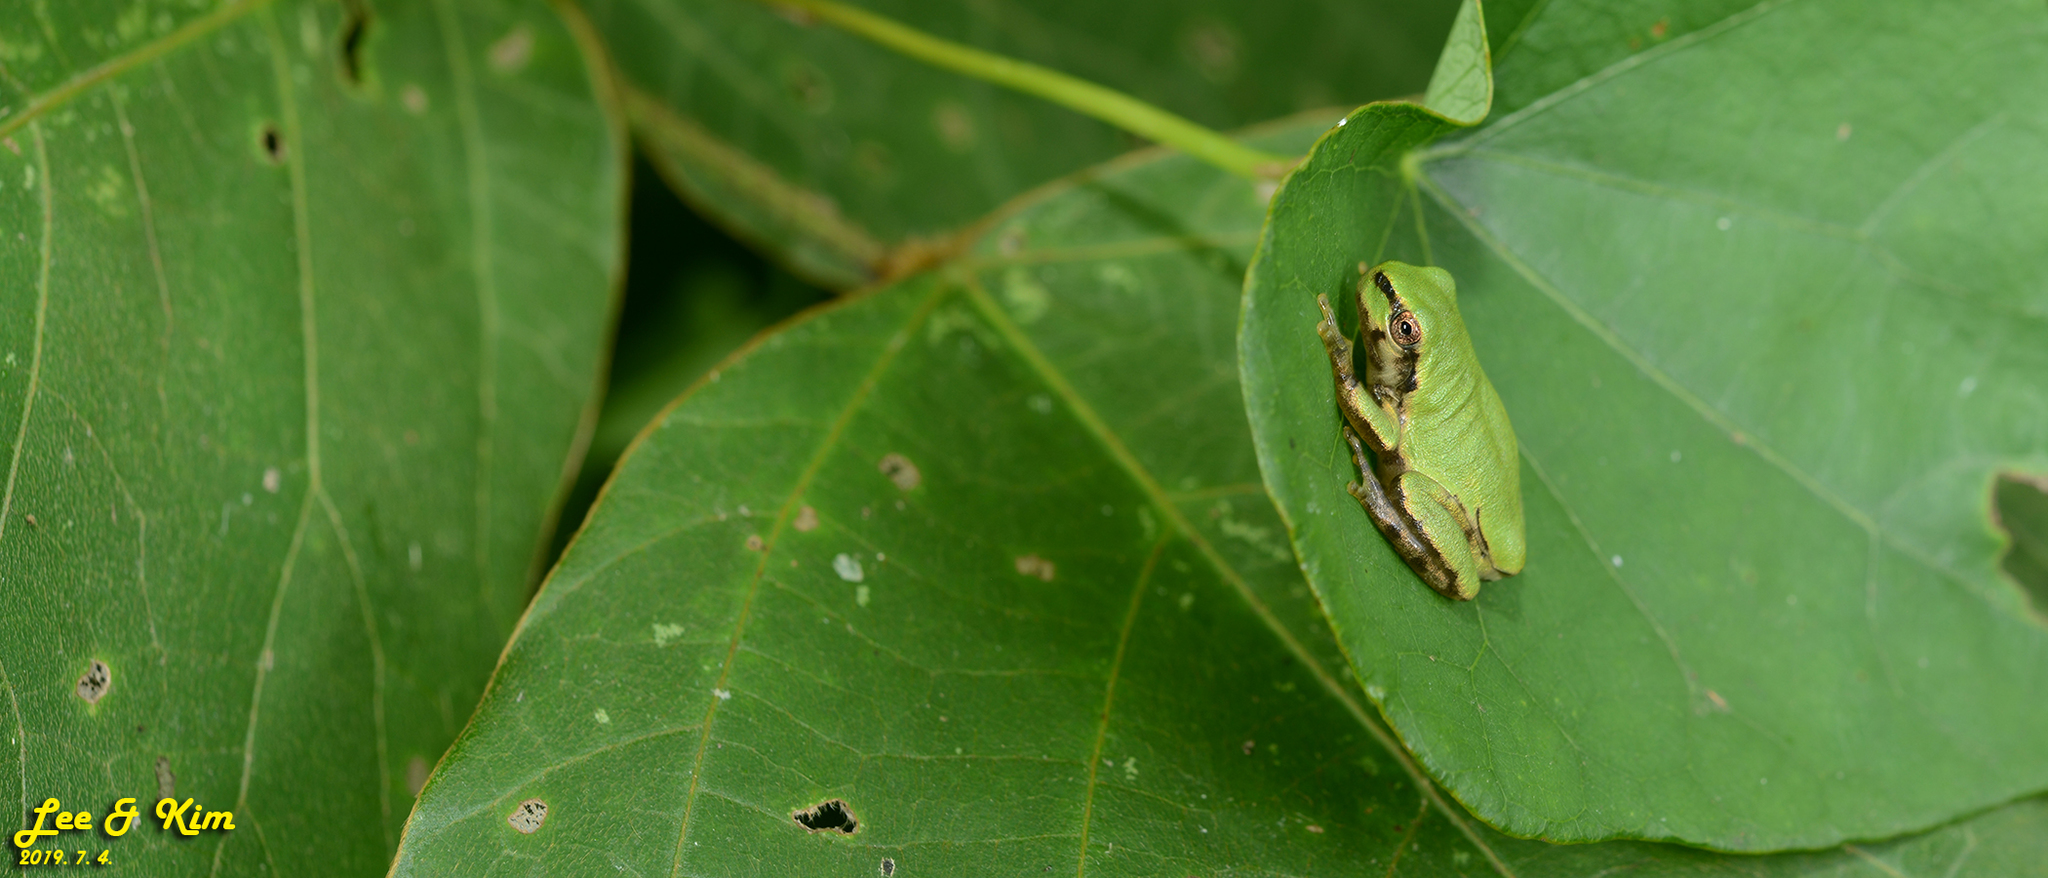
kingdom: Animalia
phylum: Chordata
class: Amphibia
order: Anura
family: Hylidae
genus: Dryophytes
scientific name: Dryophytes japonicus
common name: Japanese treefrog
